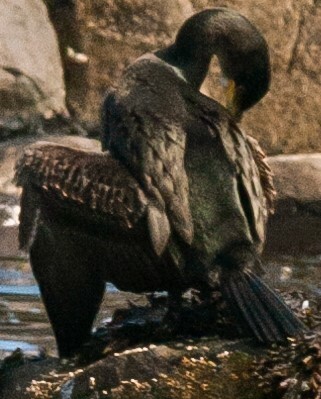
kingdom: Animalia
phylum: Chordata
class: Aves
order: Suliformes
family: Phalacrocoracidae
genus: Phalacrocorax
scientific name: Phalacrocorax aristotelis
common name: European shag
